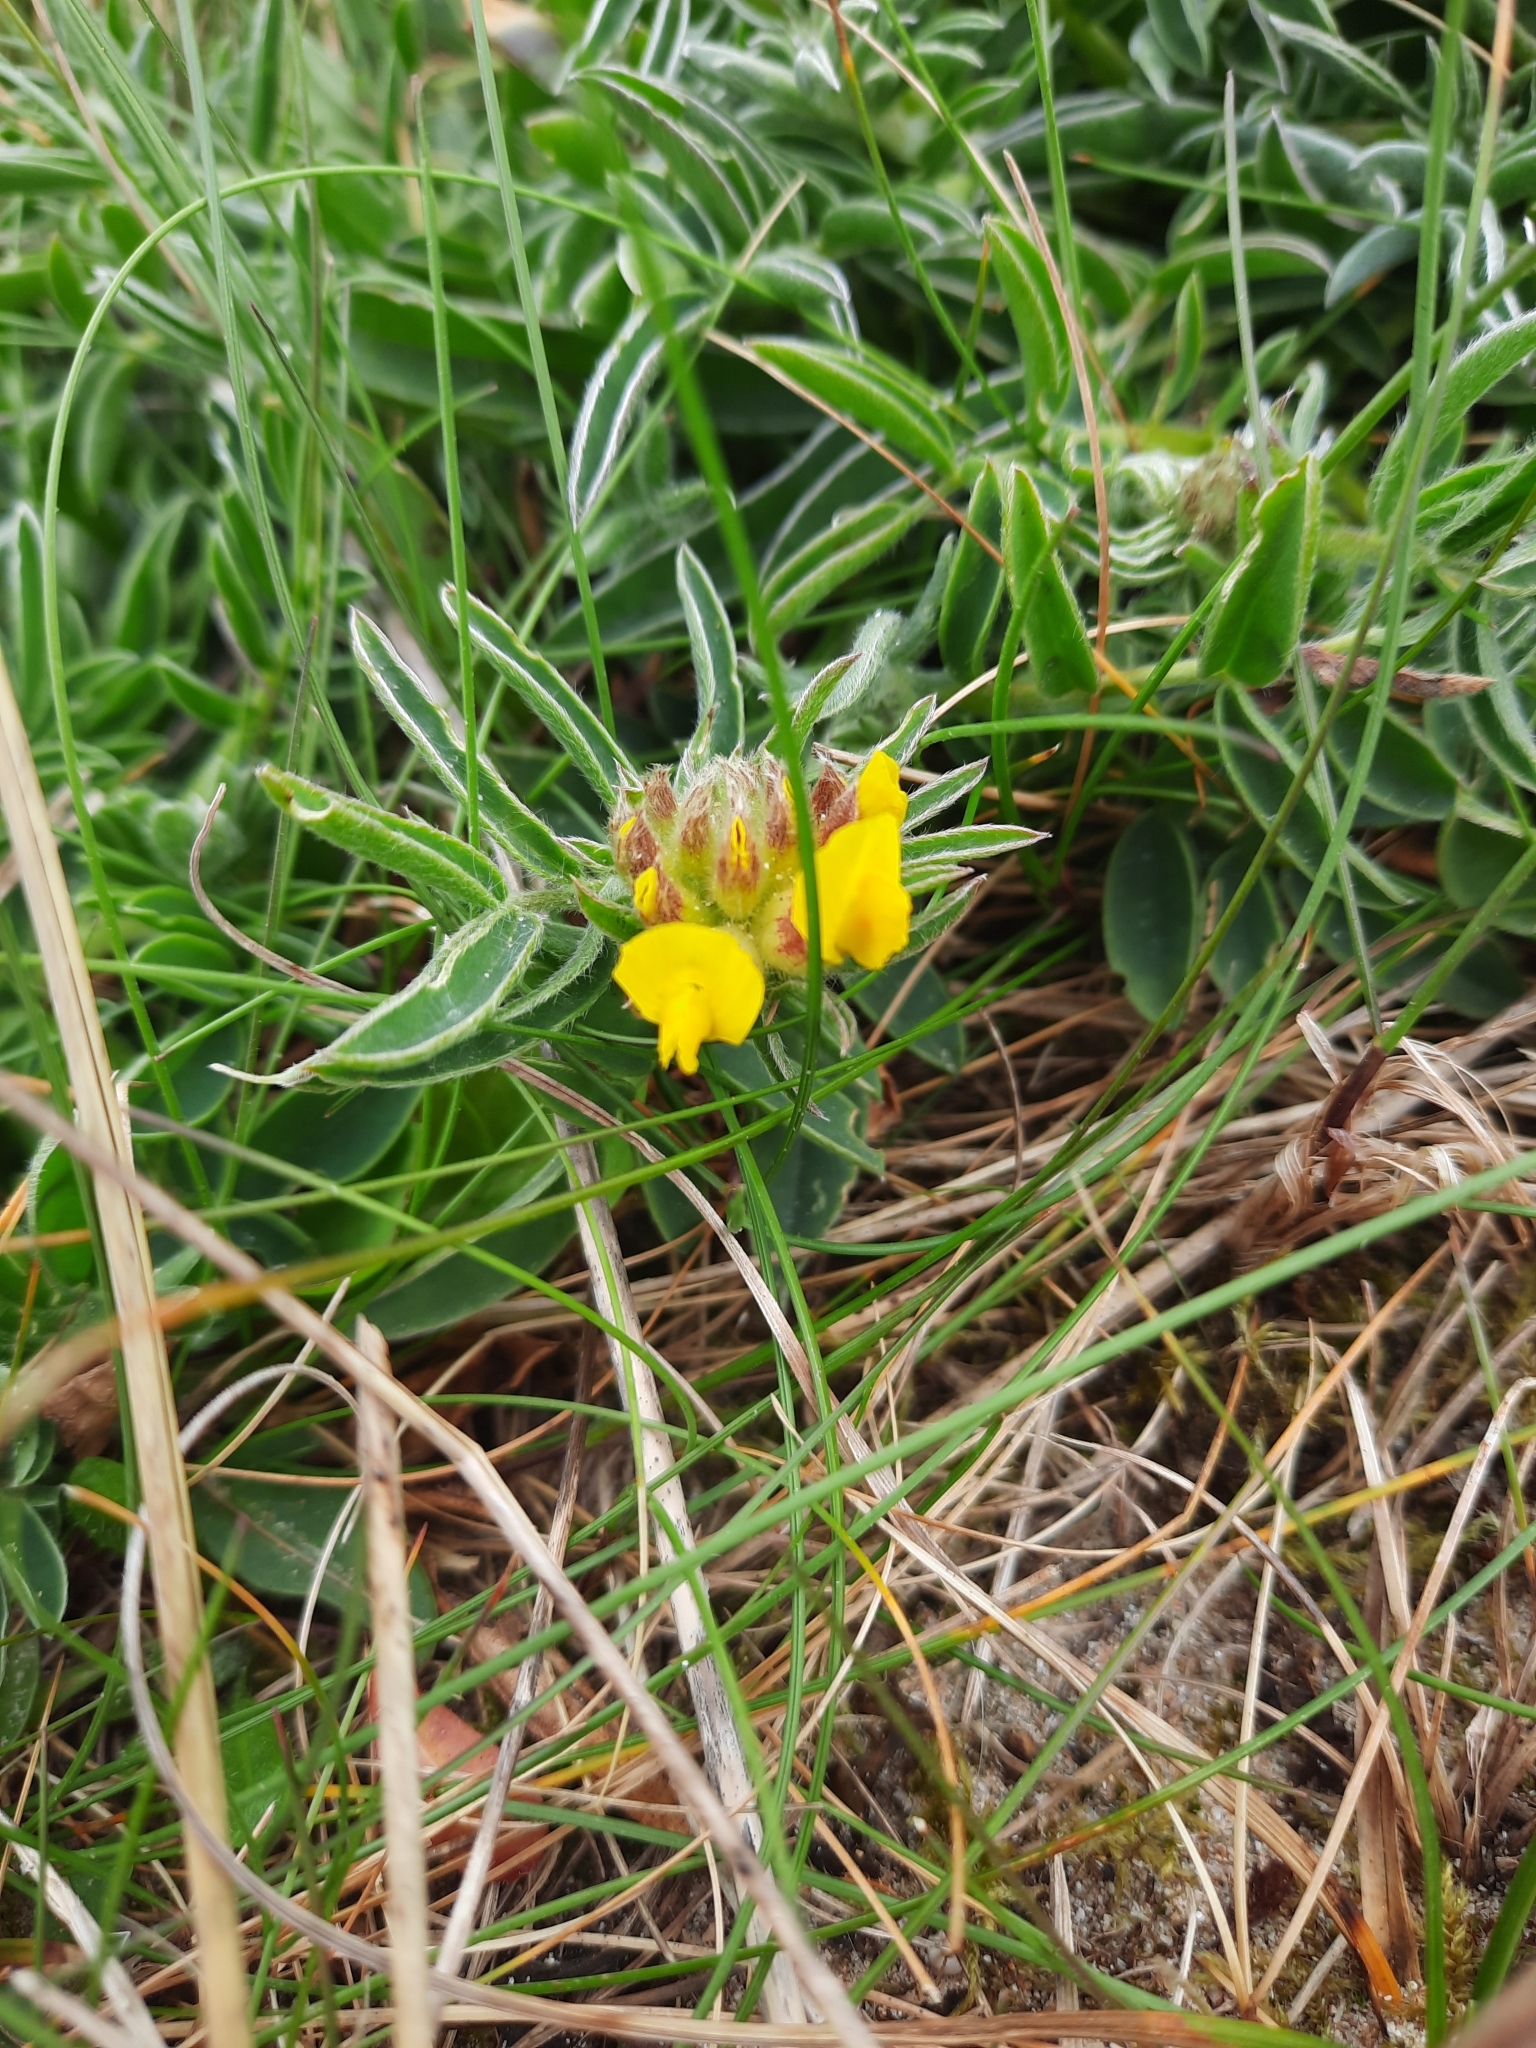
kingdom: Plantae
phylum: Tracheophyta
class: Magnoliopsida
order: Fabales
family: Fabaceae
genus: Anthyllis
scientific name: Anthyllis vulneraria
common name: Kidney vetch
